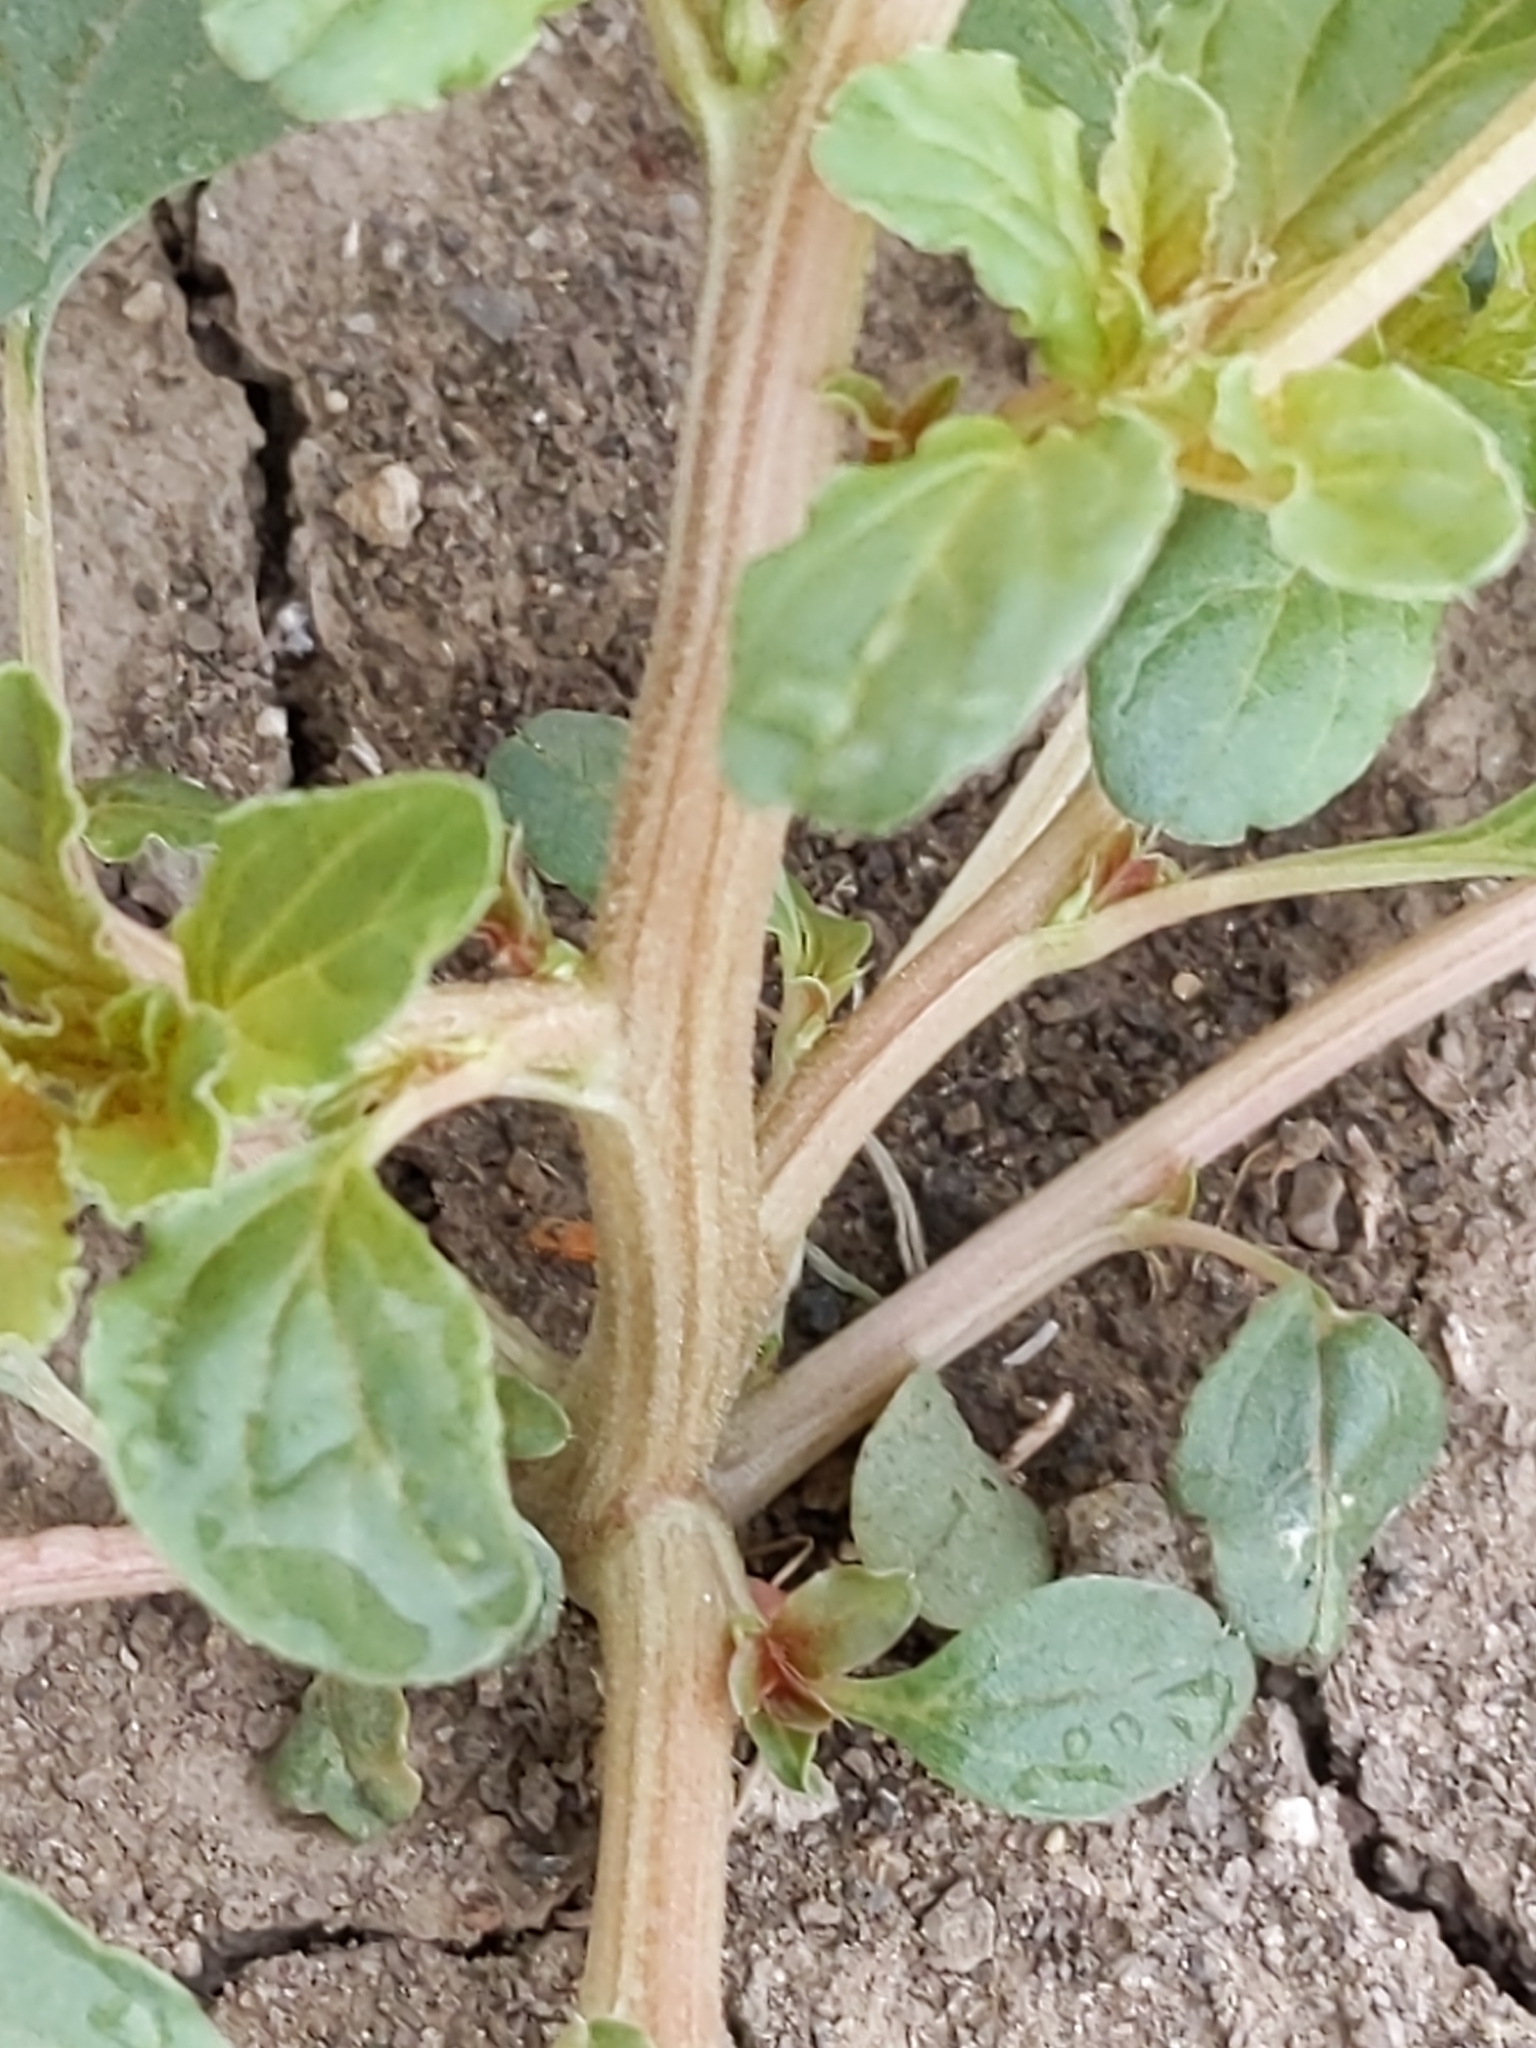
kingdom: Plantae
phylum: Tracheophyta
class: Magnoliopsida
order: Caryophyllales
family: Amaranthaceae
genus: Amaranthus
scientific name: Amaranthus blitum
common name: Purple amaranth
